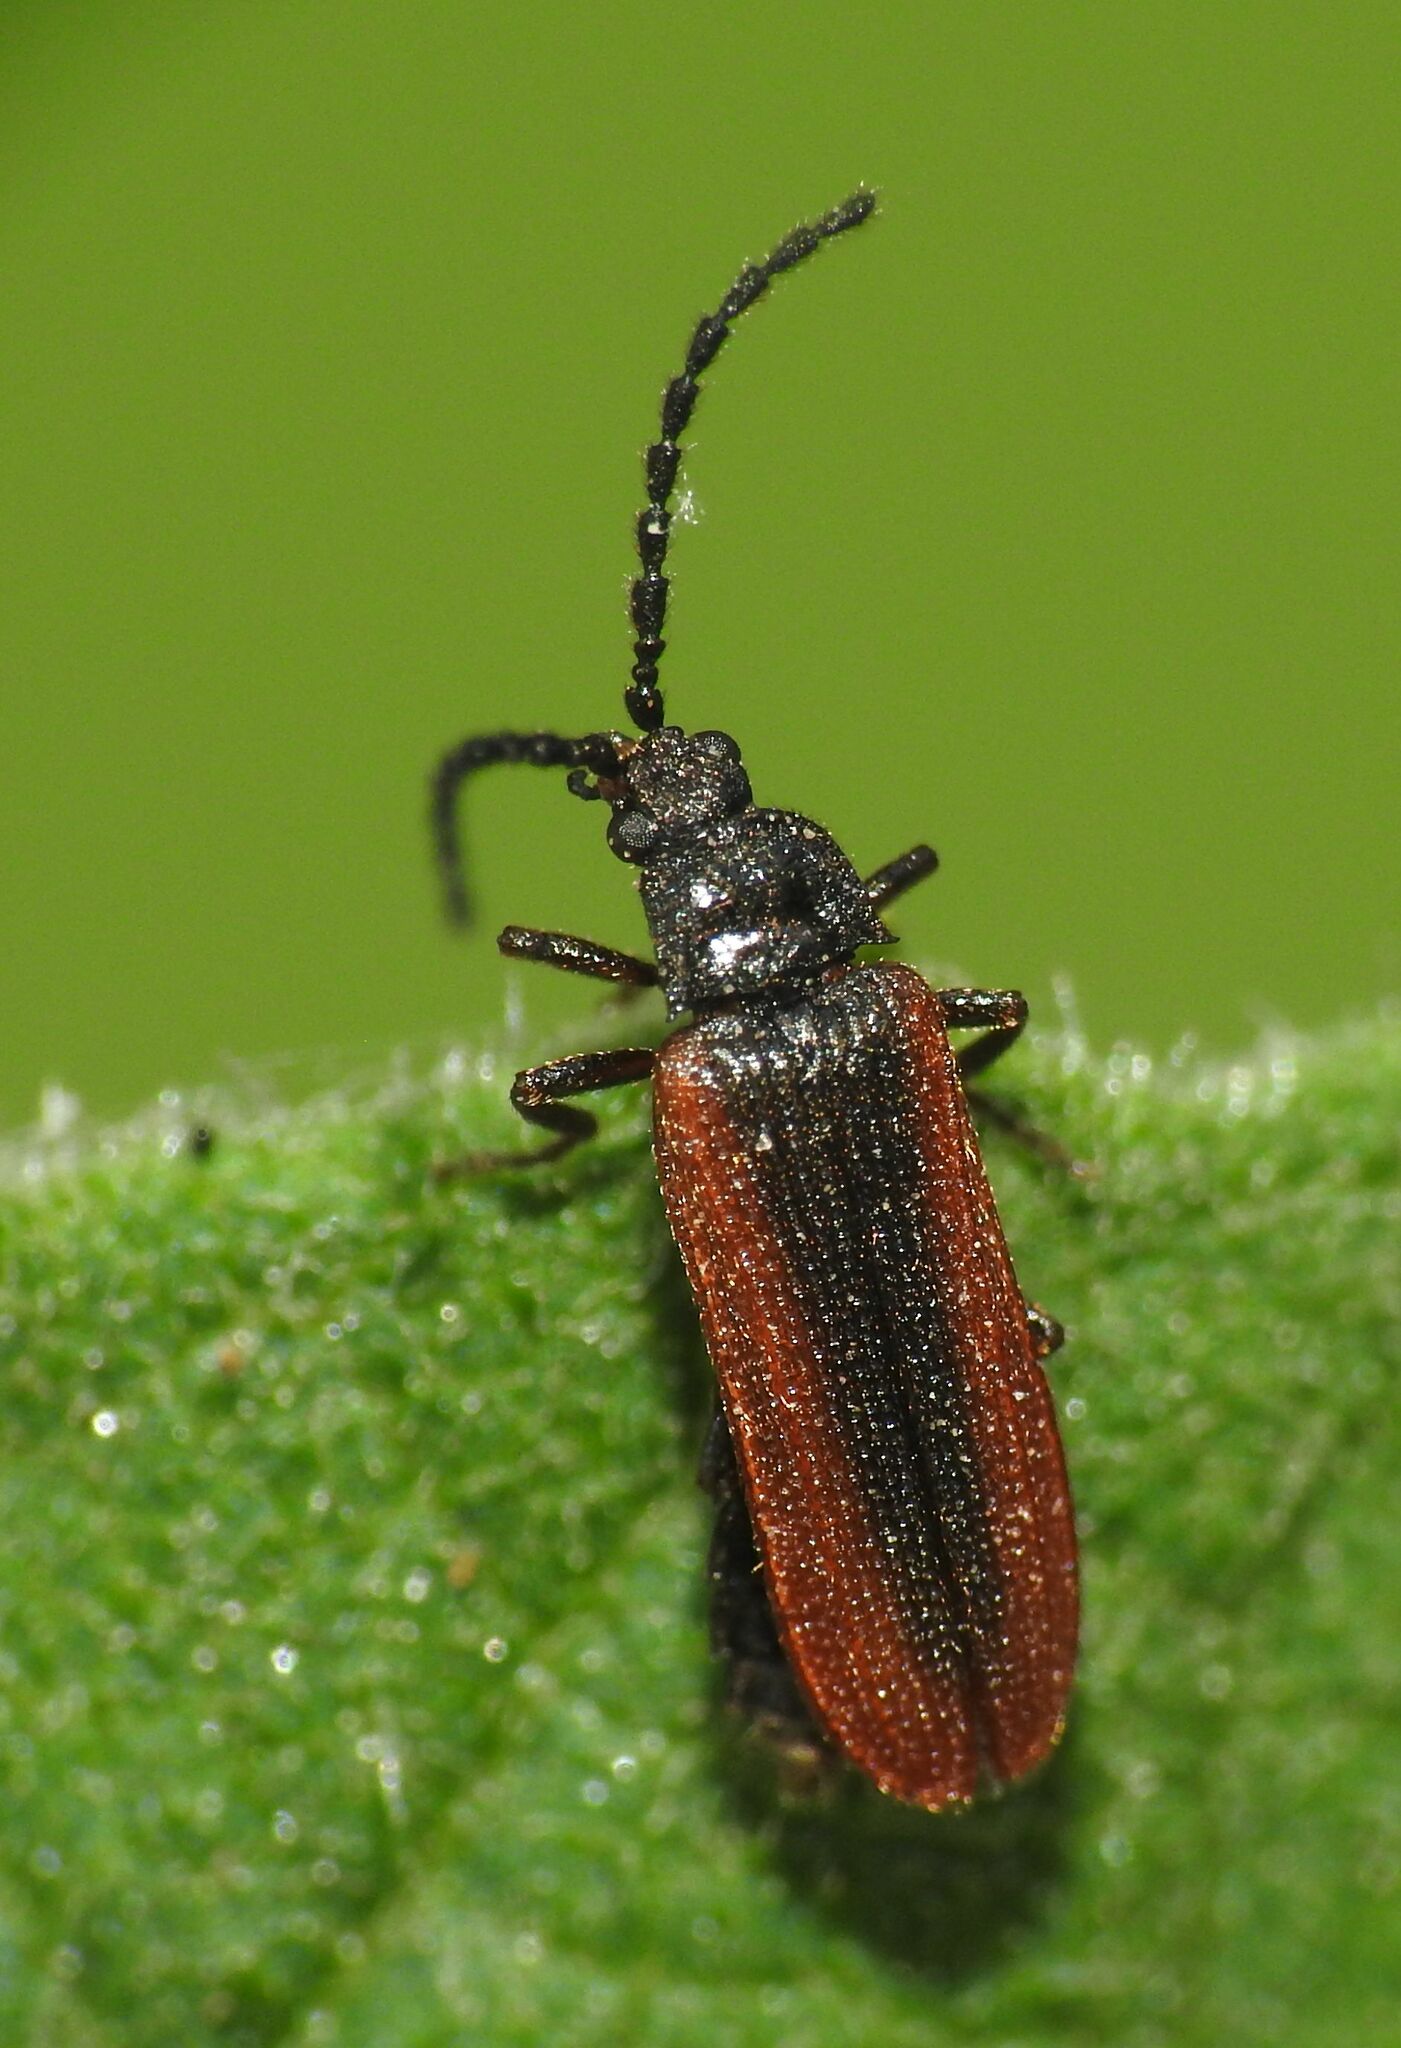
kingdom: Animalia
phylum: Arthropoda
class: Insecta
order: Coleoptera
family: Omalisidae
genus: Omalisus
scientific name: Omalisus fontisbellaquei
